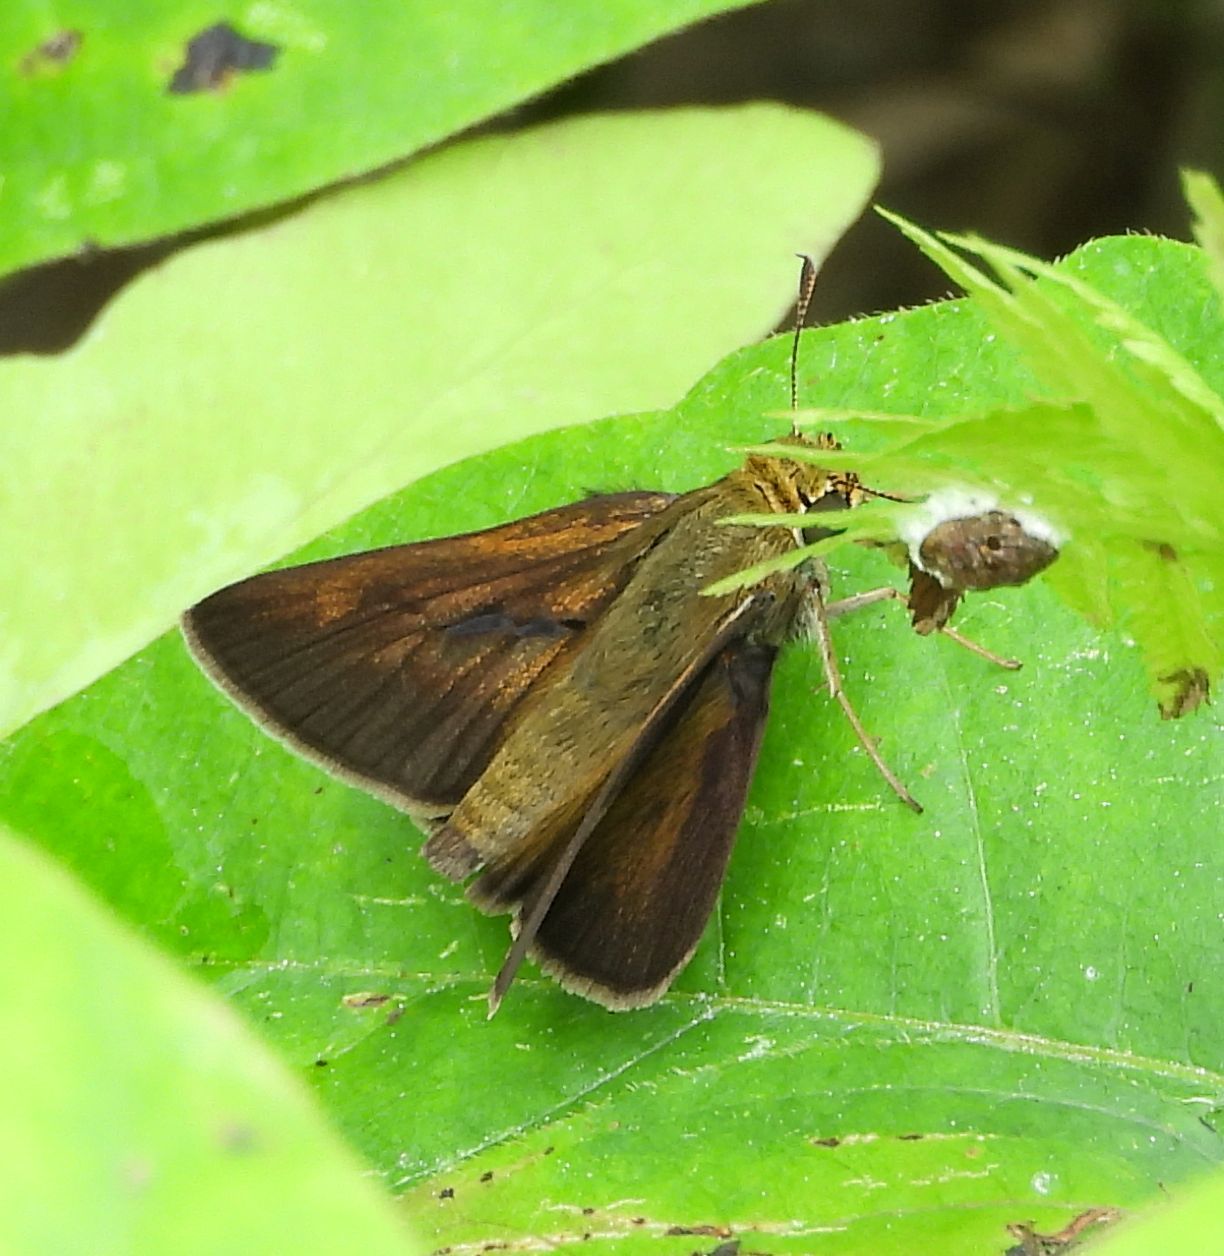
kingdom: Animalia
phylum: Arthropoda
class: Insecta
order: Lepidoptera
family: Hesperiidae
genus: Euphyes
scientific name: Euphyes vestris
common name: Dun skipper
